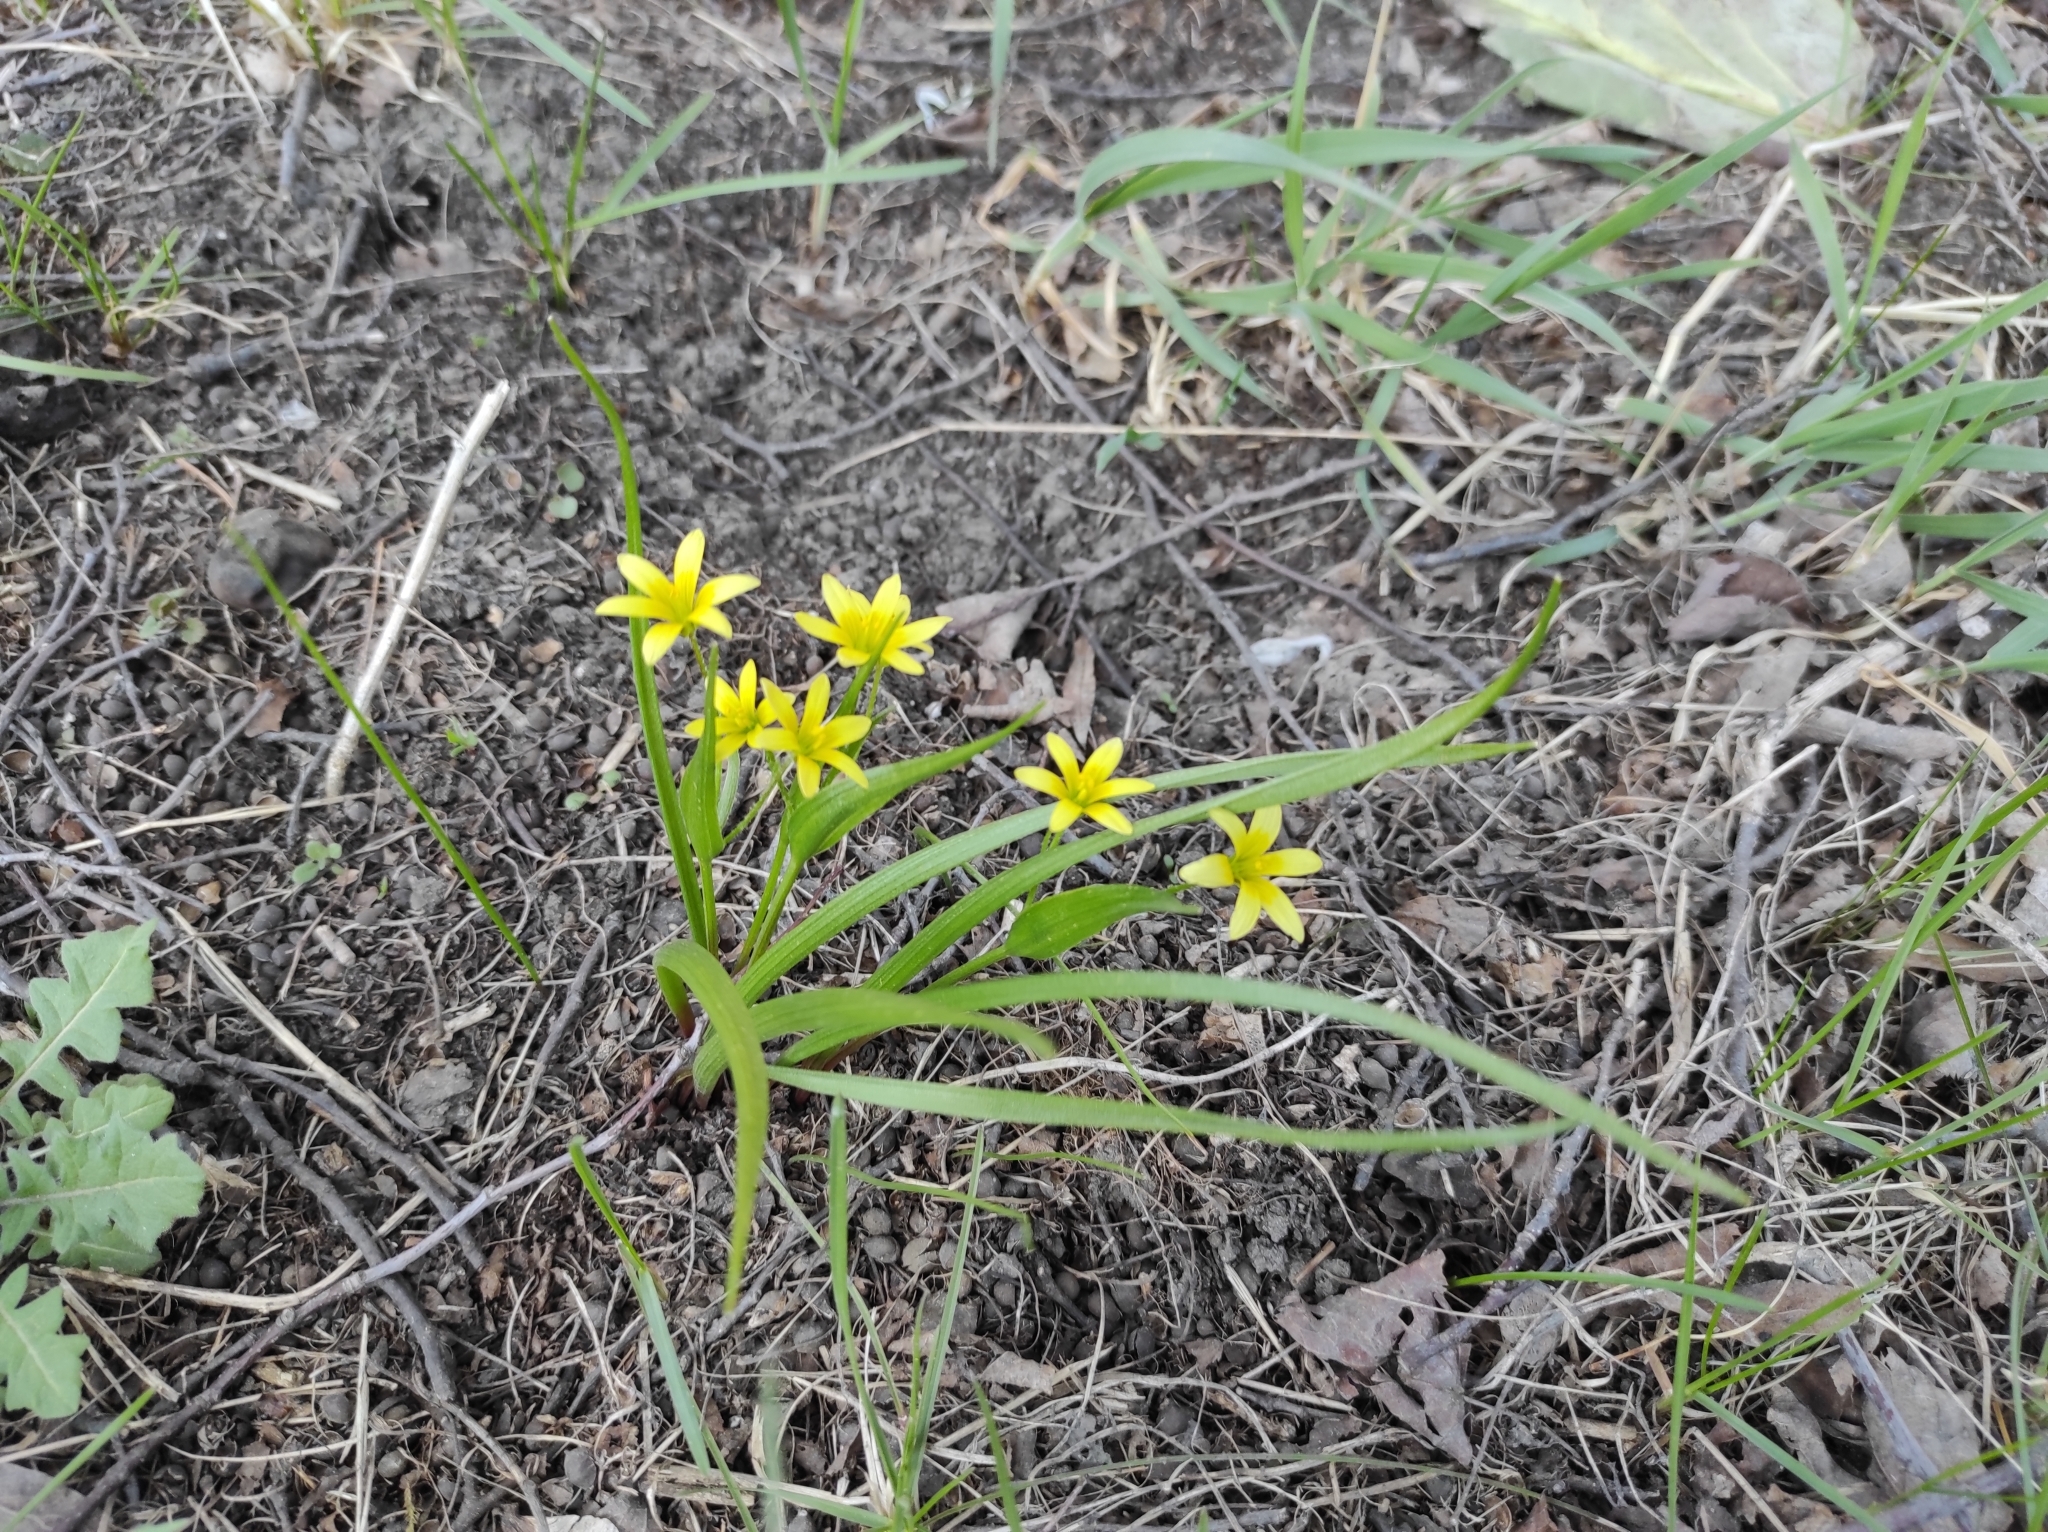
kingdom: Plantae
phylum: Tracheophyta
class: Liliopsida
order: Liliales
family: Liliaceae
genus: Gagea
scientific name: Gagea granulosa
